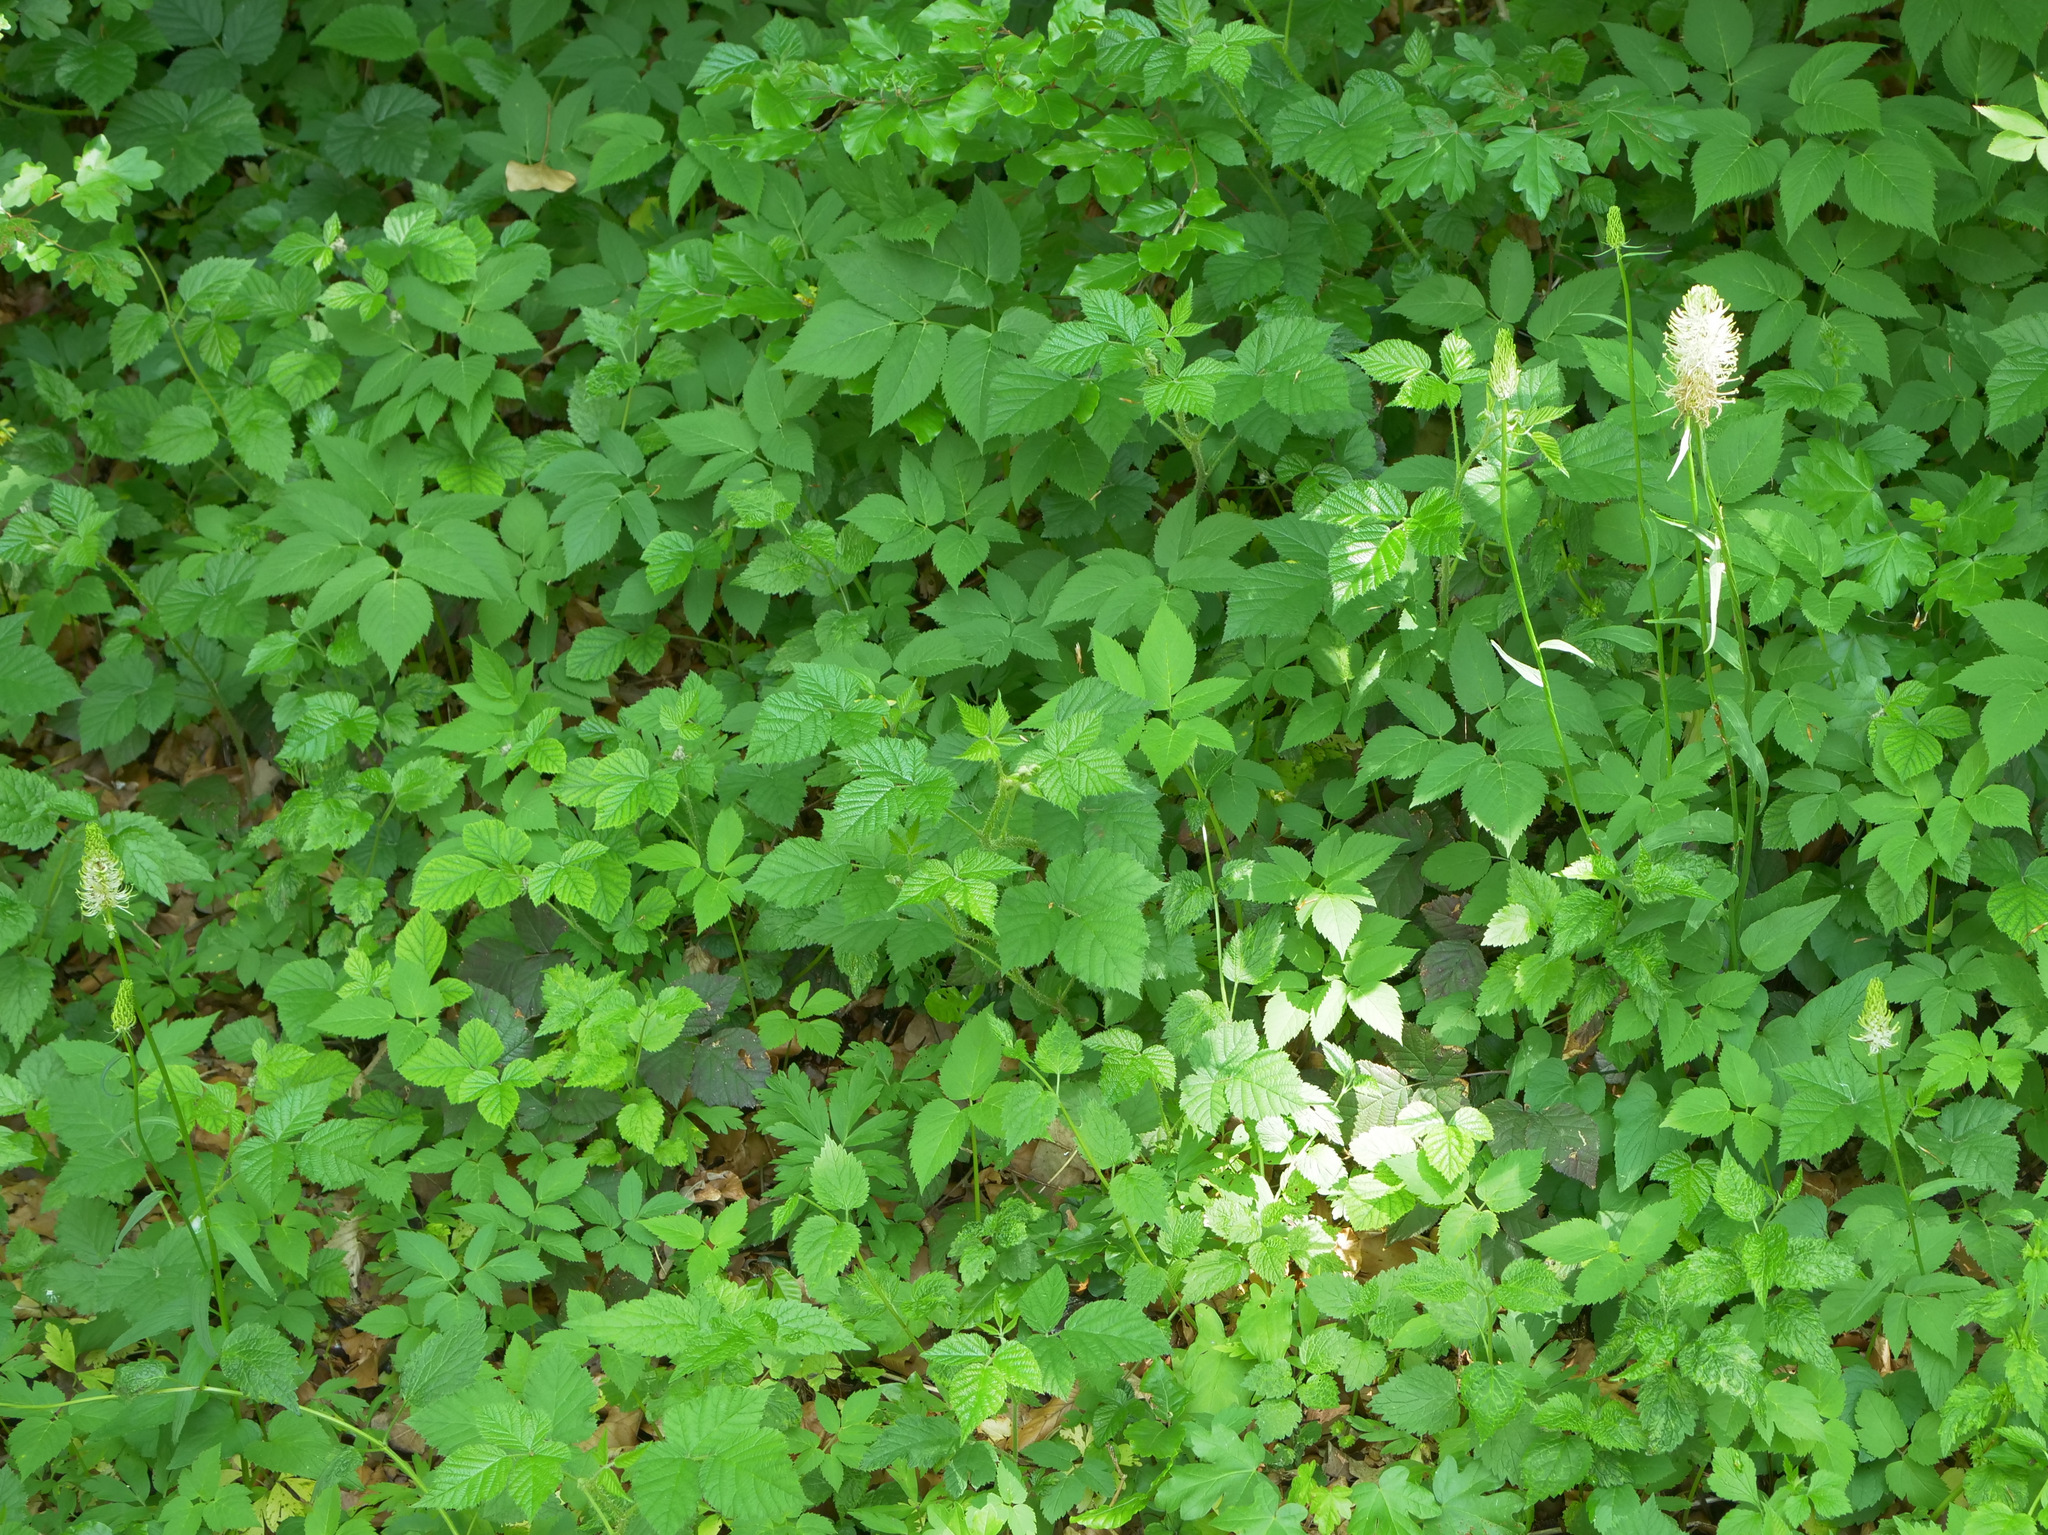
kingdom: Plantae
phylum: Tracheophyta
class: Magnoliopsida
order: Asterales
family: Campanulaceae
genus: Phyteuma
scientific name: Phyteuma spicatum
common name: Spiked rampion
